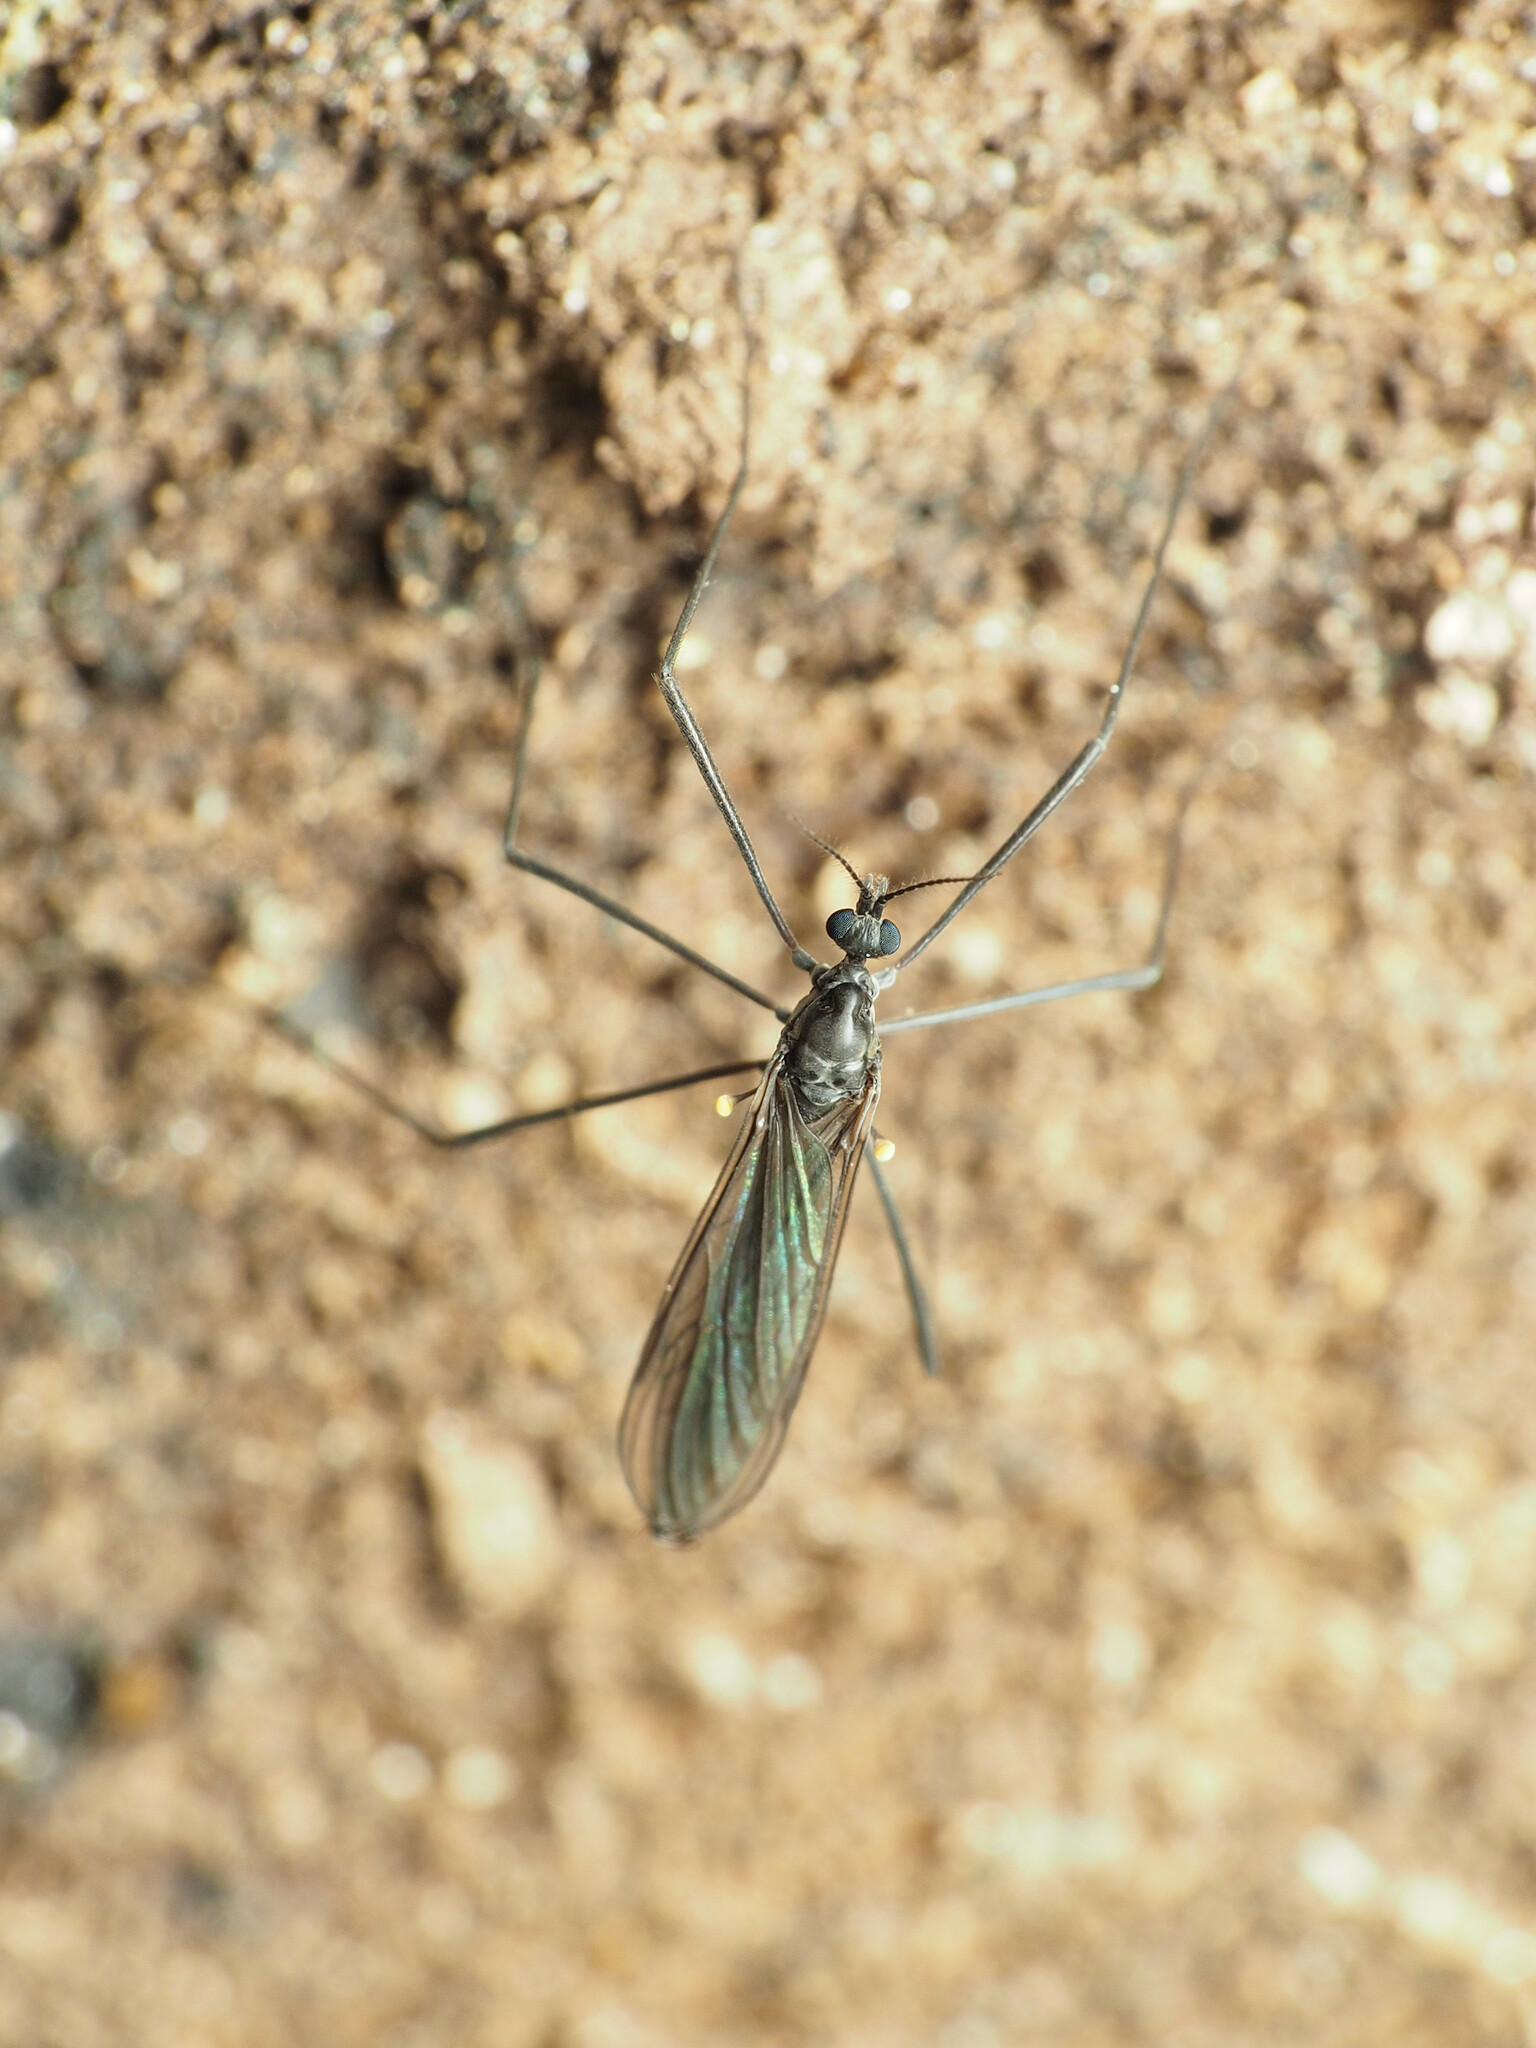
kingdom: Animalia
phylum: Arthropoda
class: Insecta
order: Diptera
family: Limoniidae
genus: Gnophomyia
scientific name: Gnophomyia tristissima
